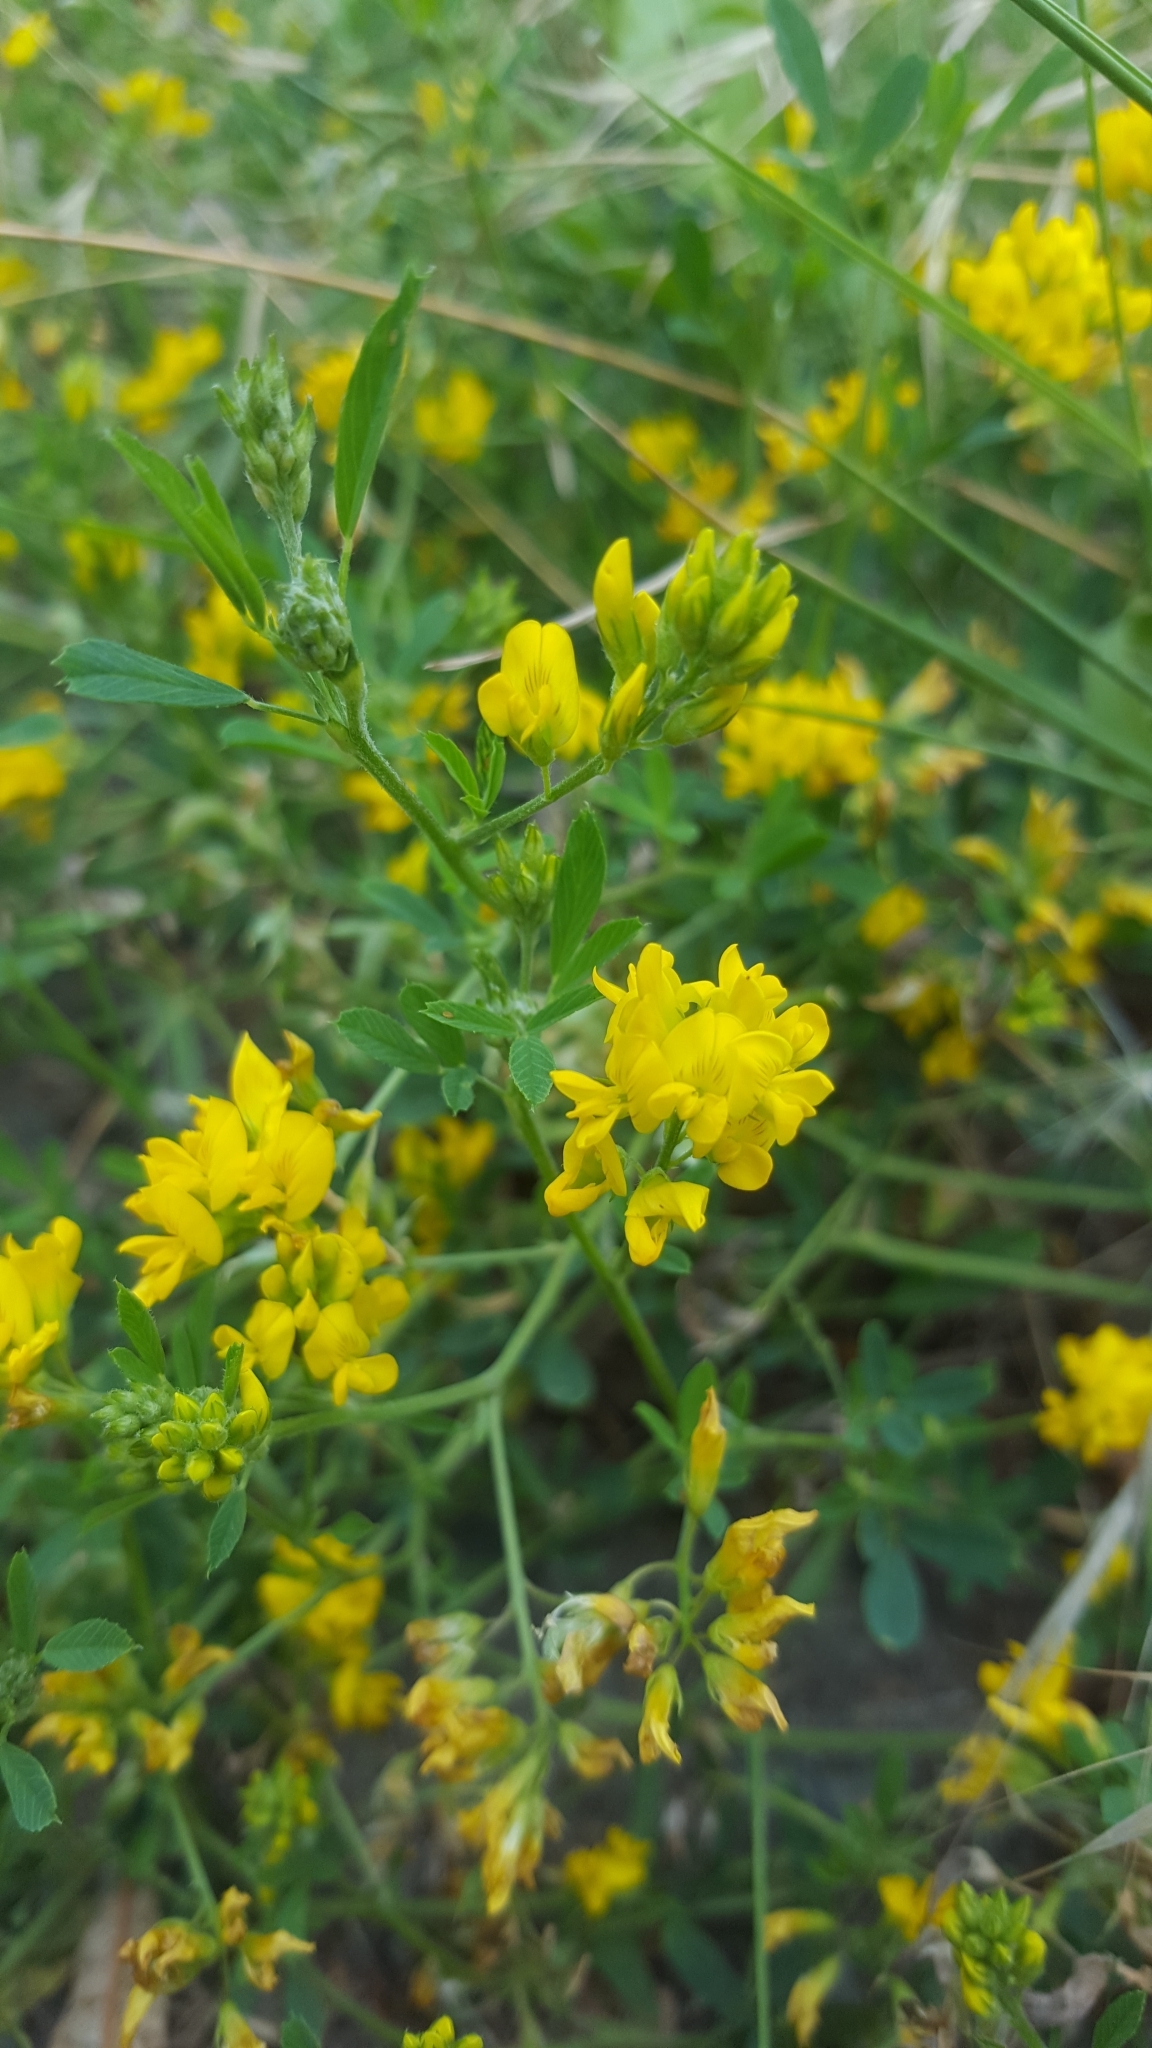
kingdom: Plantae
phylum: Tracheophyta
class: Magnoliopsida
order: Fabales
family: Fabaceae
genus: Medicago
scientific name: Medicago falcata
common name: Sickle medick
